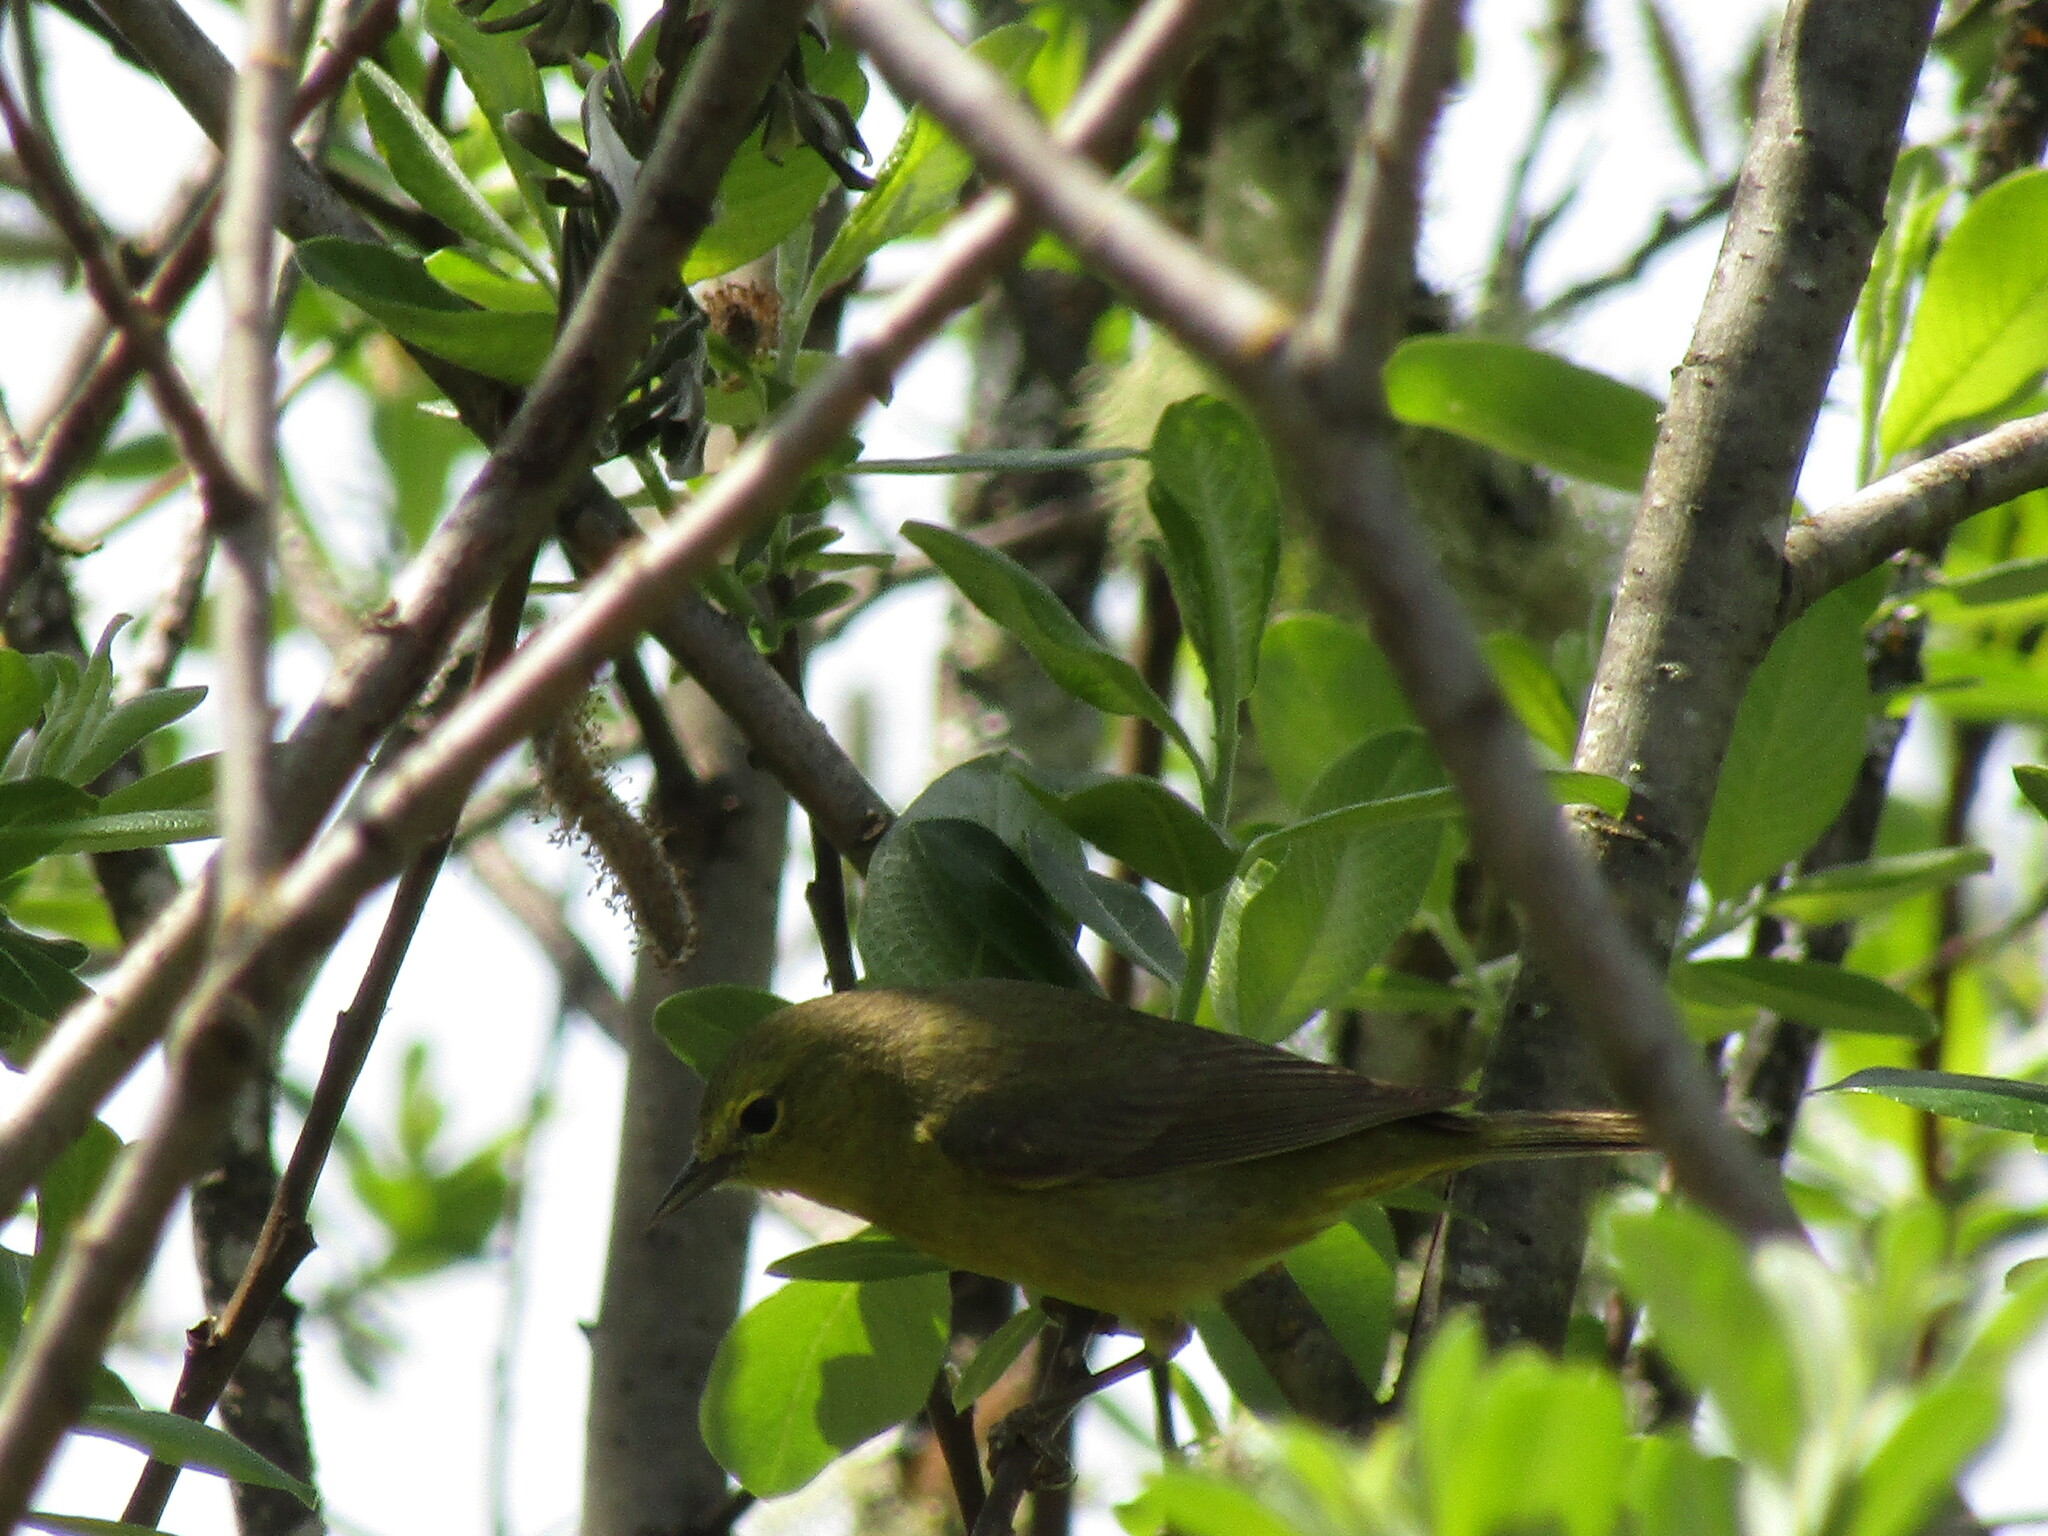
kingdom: Animalia
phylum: Chordata
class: Aves
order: Passeriformes
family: Parulidae
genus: Leiothlypis
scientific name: Leiothlypis celata
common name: Orange-crowned warbler
